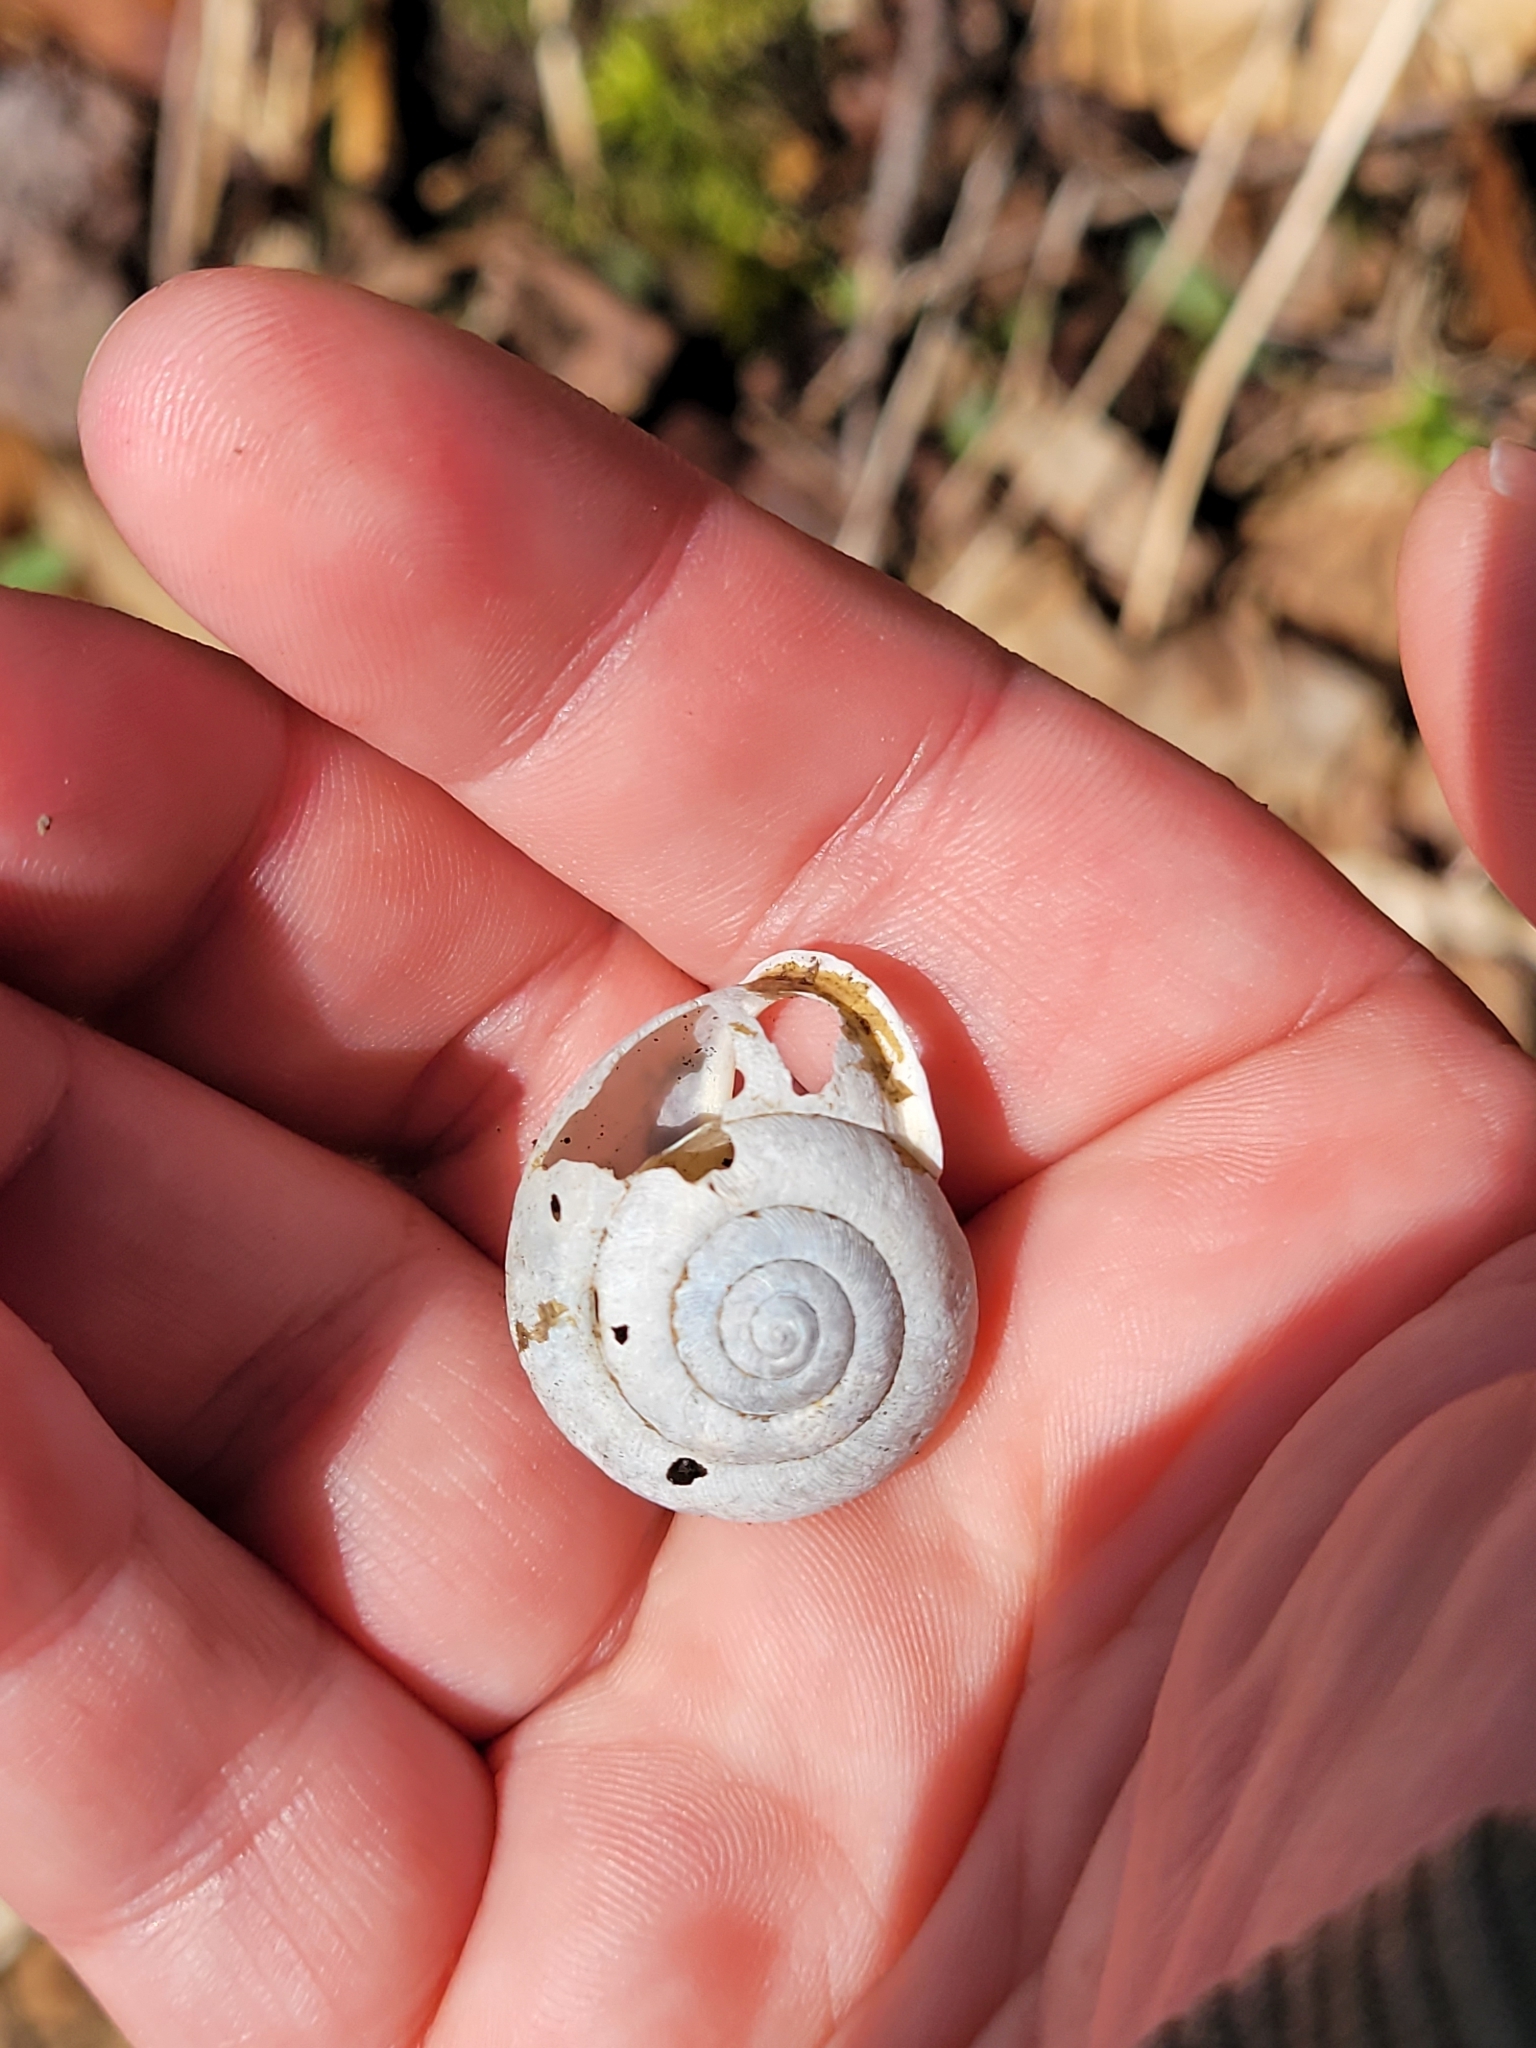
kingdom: Animalia
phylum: Mollusca
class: Gastropoda
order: Stylommatophora
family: Polygyridae
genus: Mesodon
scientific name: Mesodon zaletus
